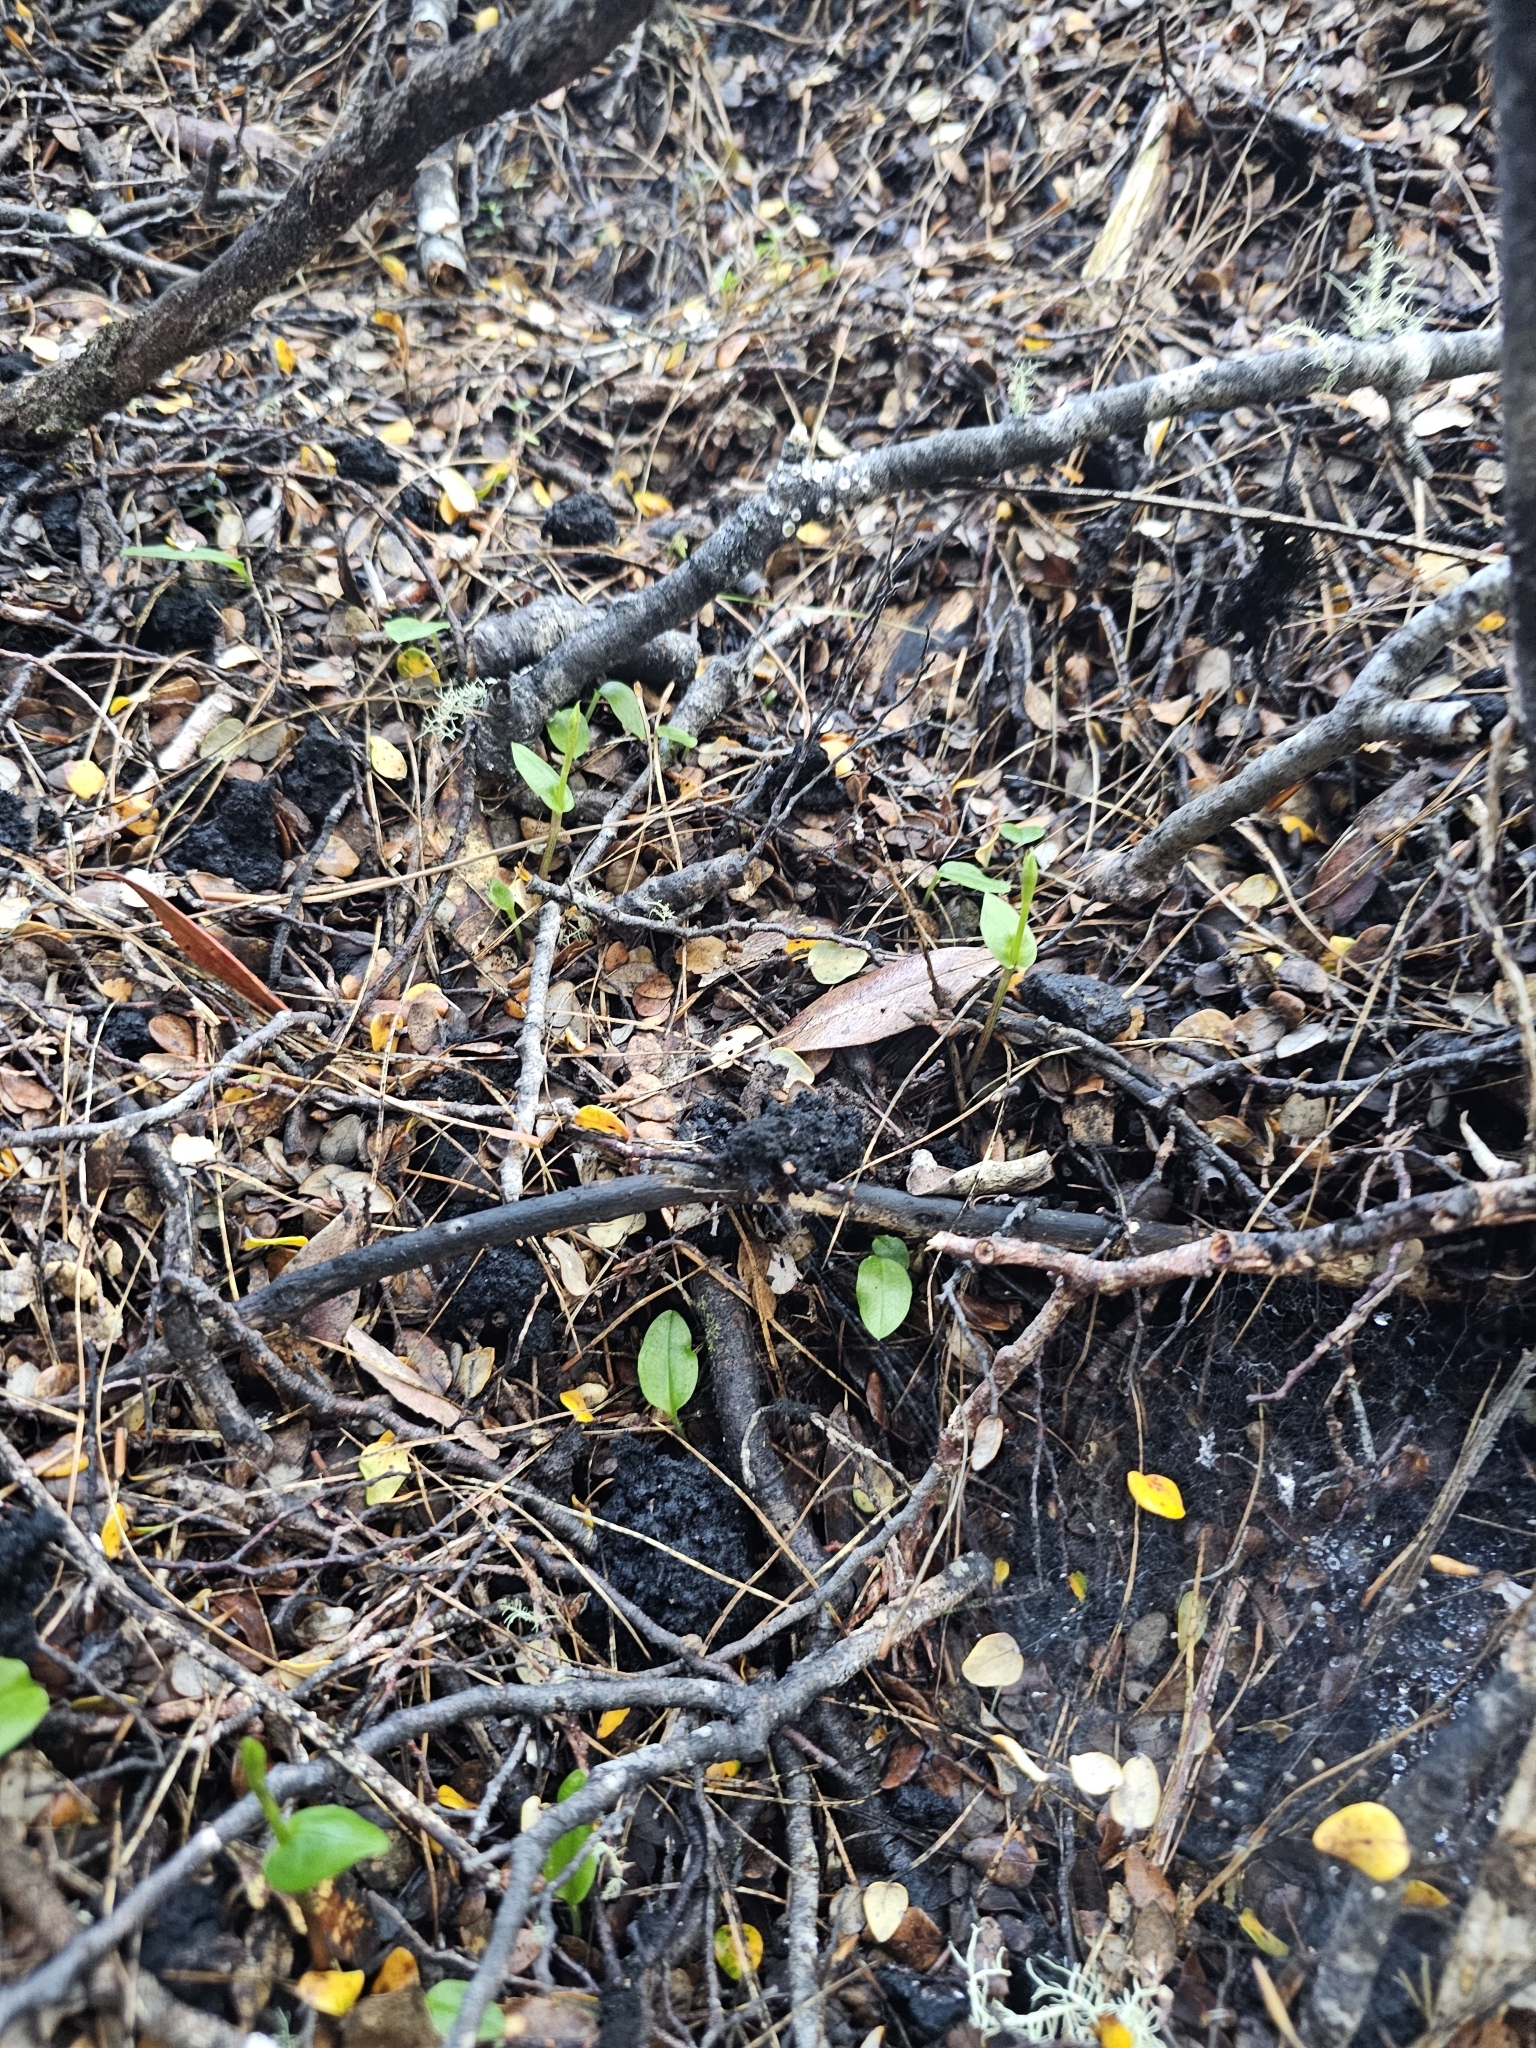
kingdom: Plantae
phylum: Tracheophyta
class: Liliopsida
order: Asparagales
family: Orchidaceae
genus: Adenochilus
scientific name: Adenochilus gracilis
